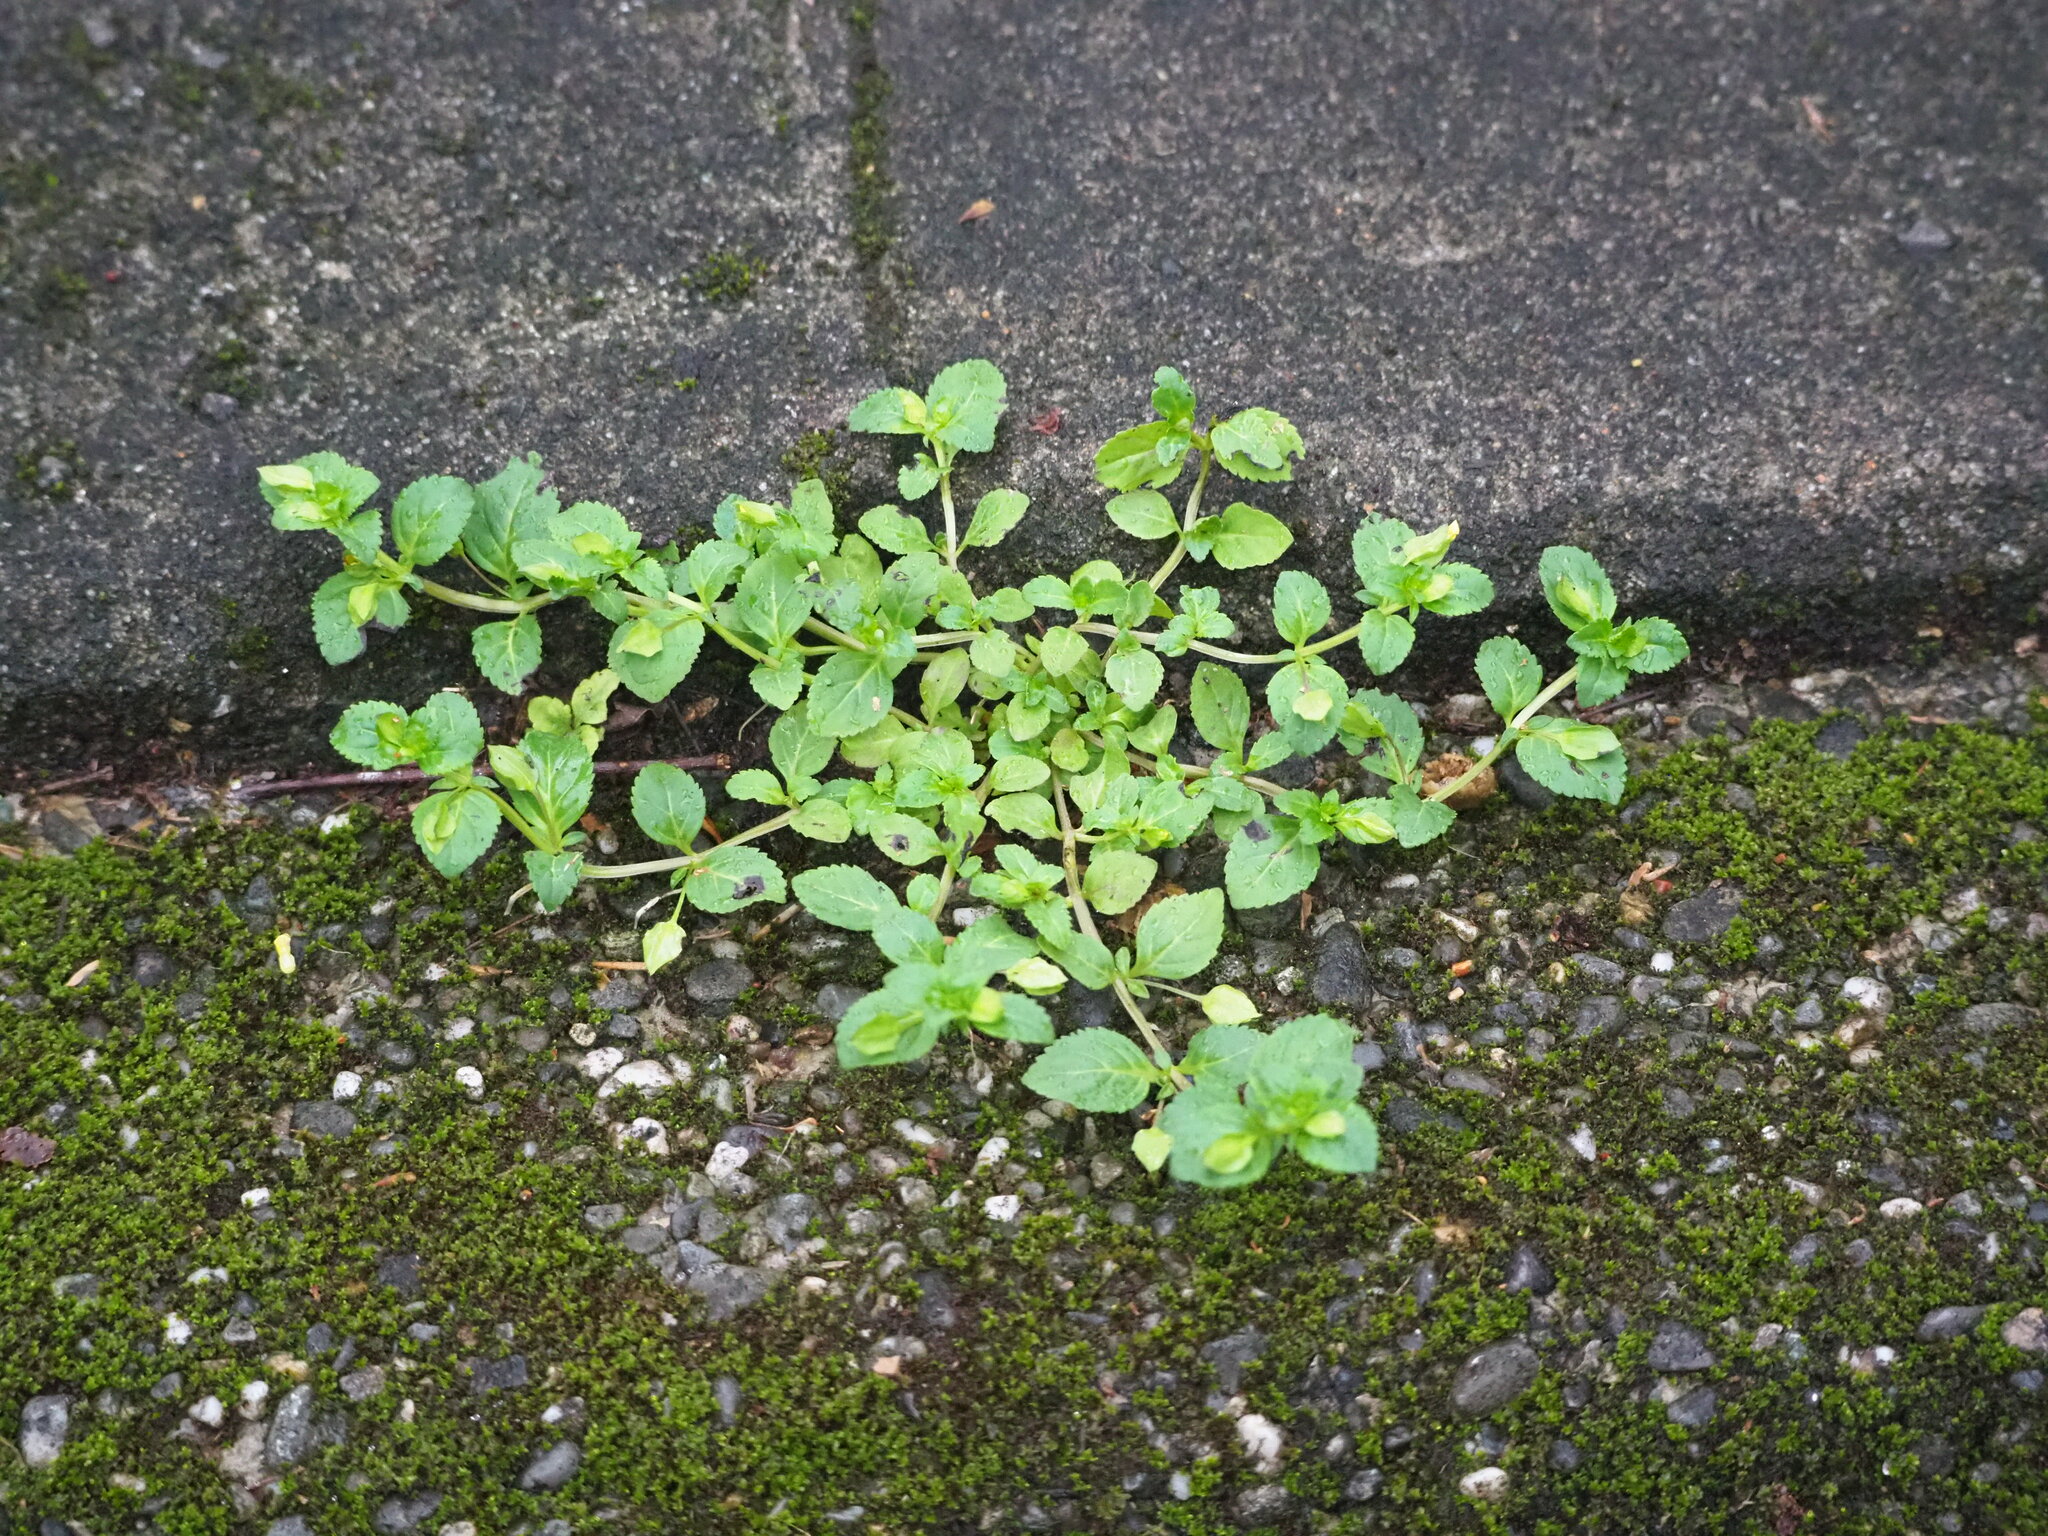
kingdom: Plantae
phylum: Tracheophyta
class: Magnoliopsida
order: Lamiales
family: Plantaginaceae
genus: Mecardonia
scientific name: Mecardonia procumbens
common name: Baby jump-up
